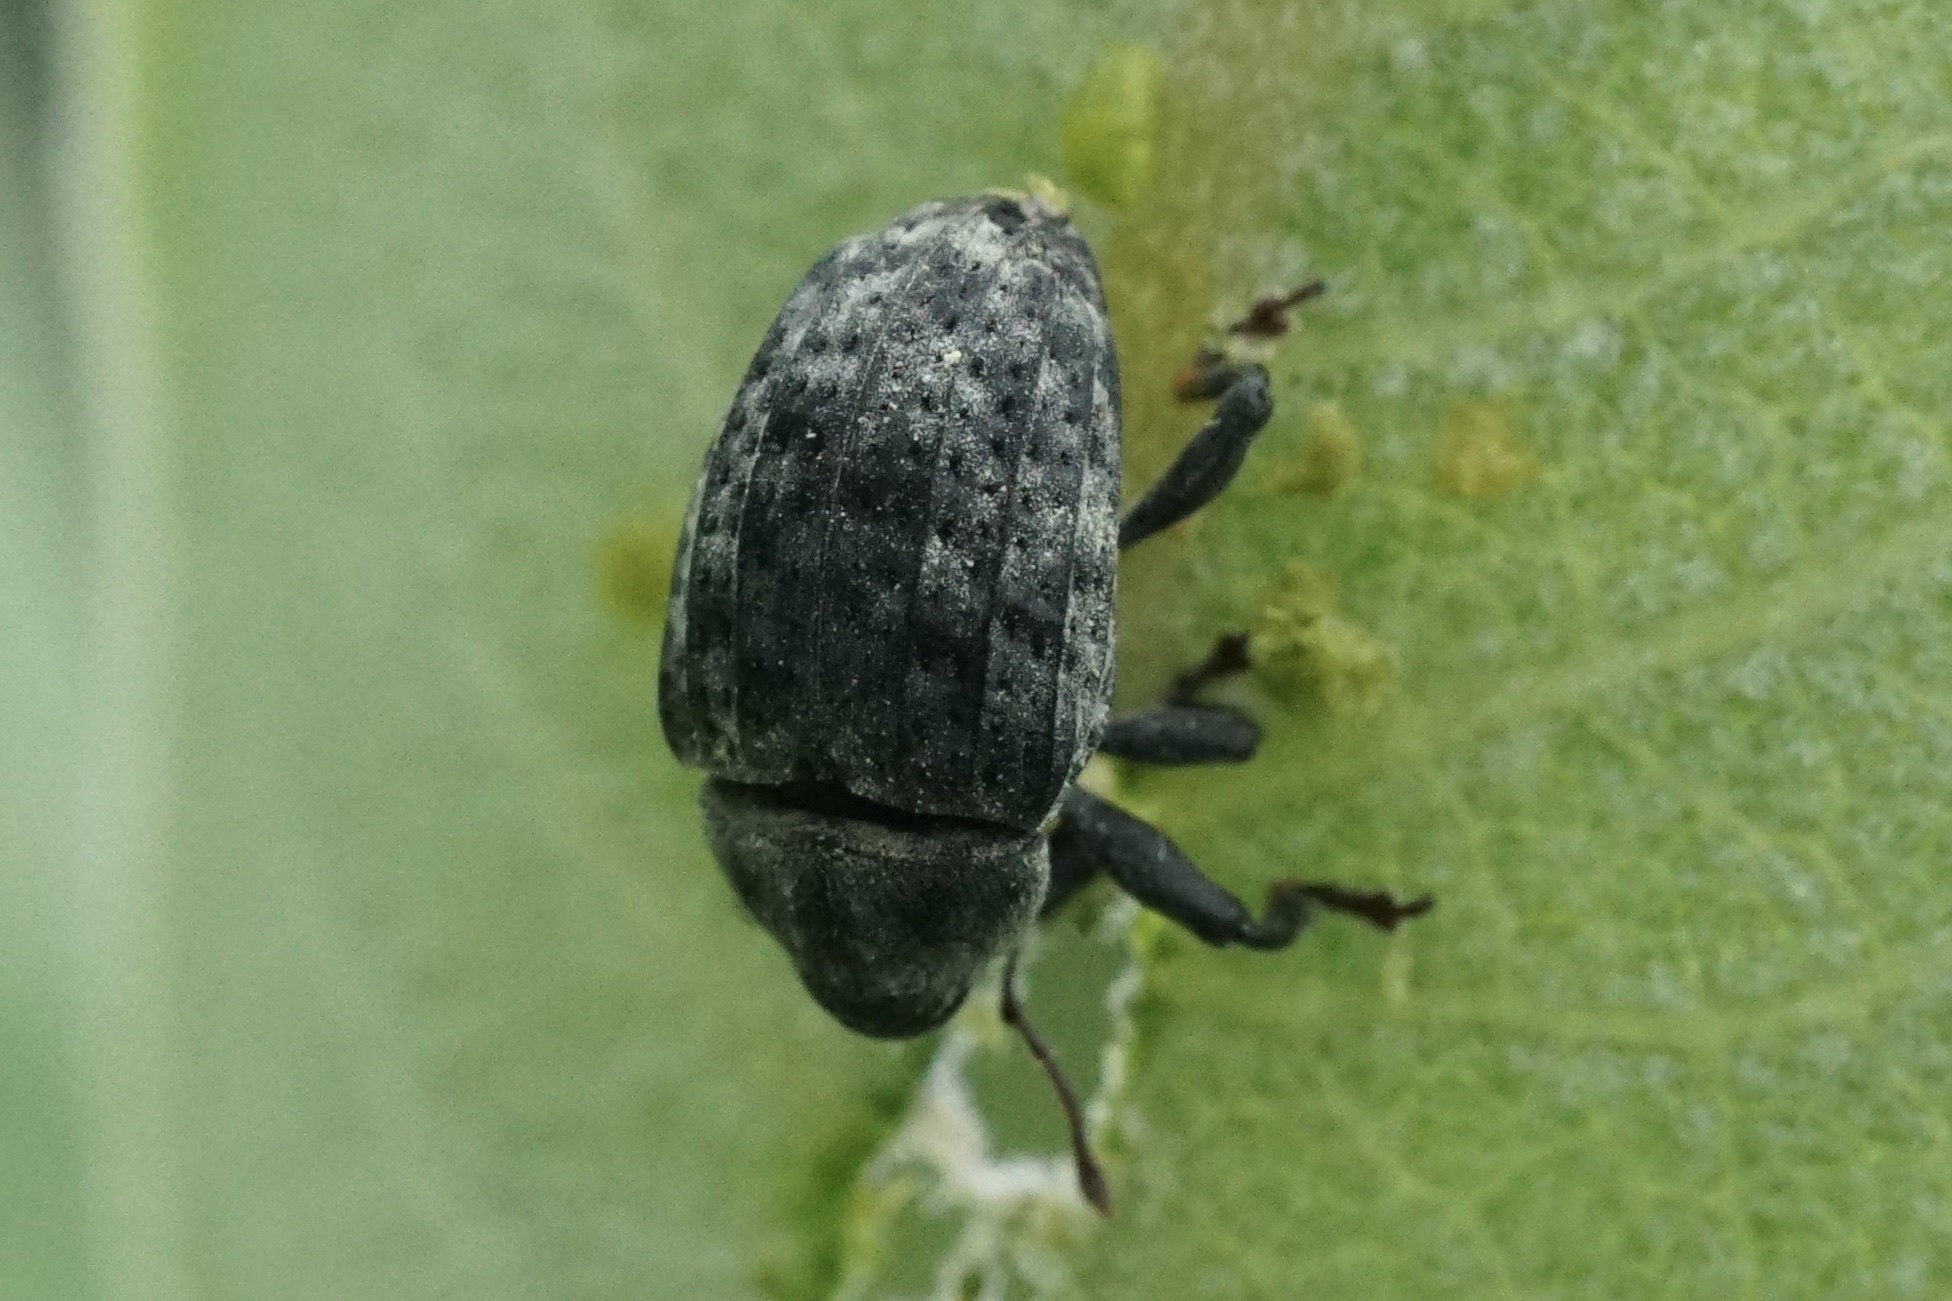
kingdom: Animalia
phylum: Arthropoda
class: Insecta
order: Coleoptera
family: Curculionidae
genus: Rhyssomatus
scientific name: Rhyssomatus lineaticollis
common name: Milkweed stem weevil
